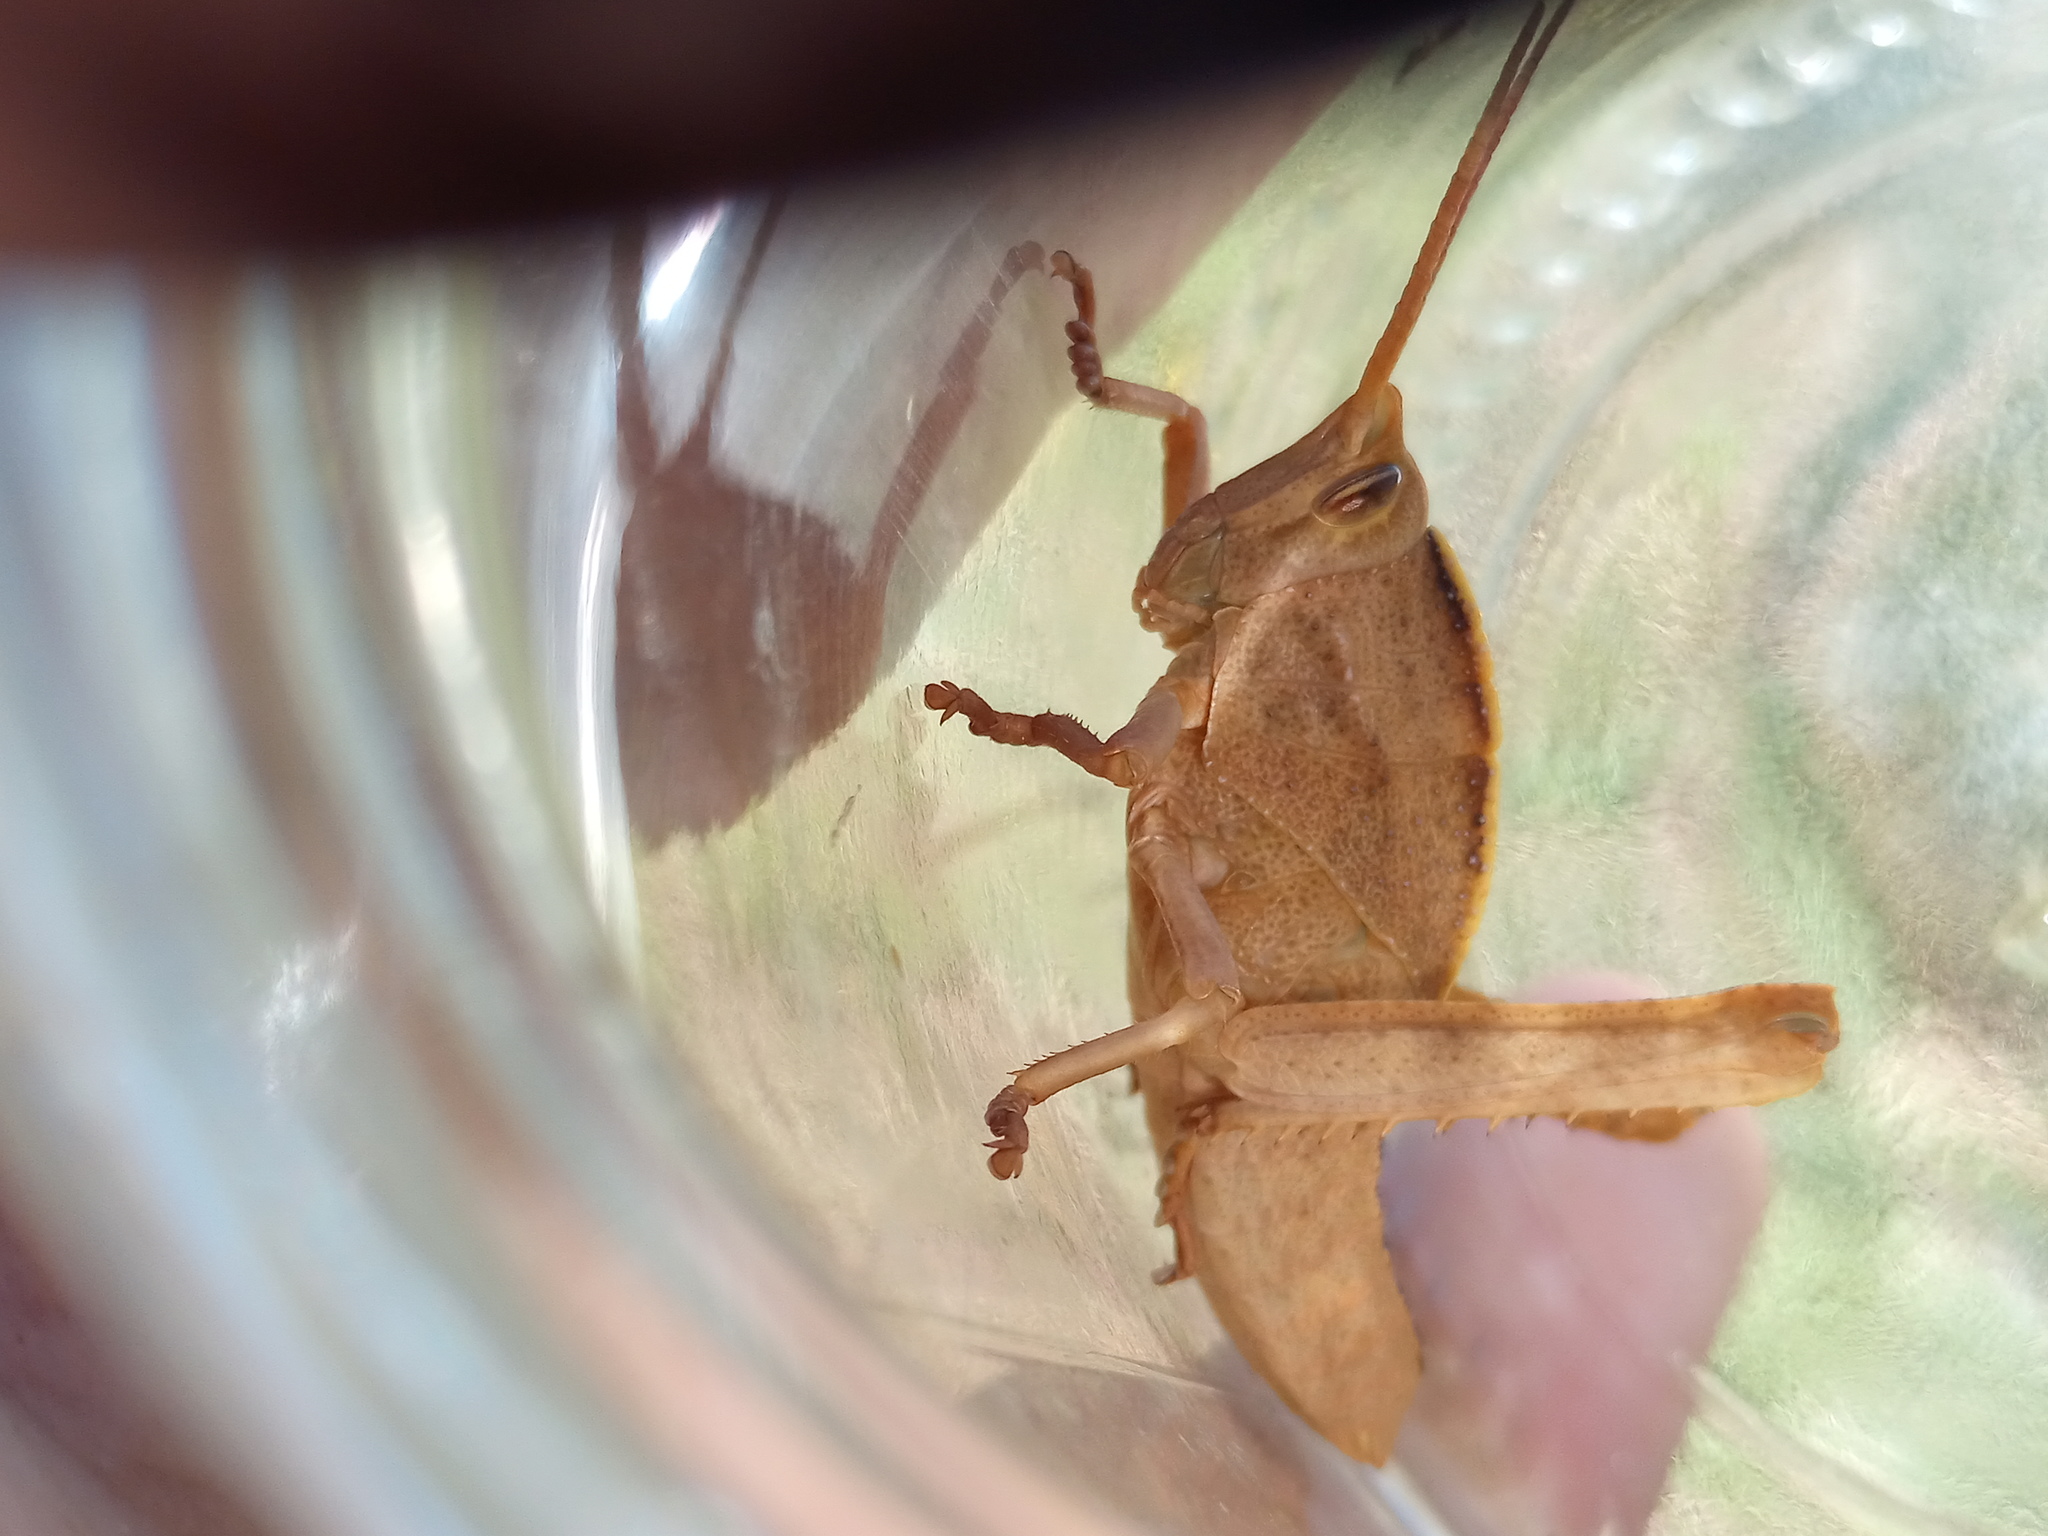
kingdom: Animalia
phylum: Arthropoda
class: Insecta
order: Orthoptera
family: Romaleidae
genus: Staleochlora
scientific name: Staleochlora viridicata
